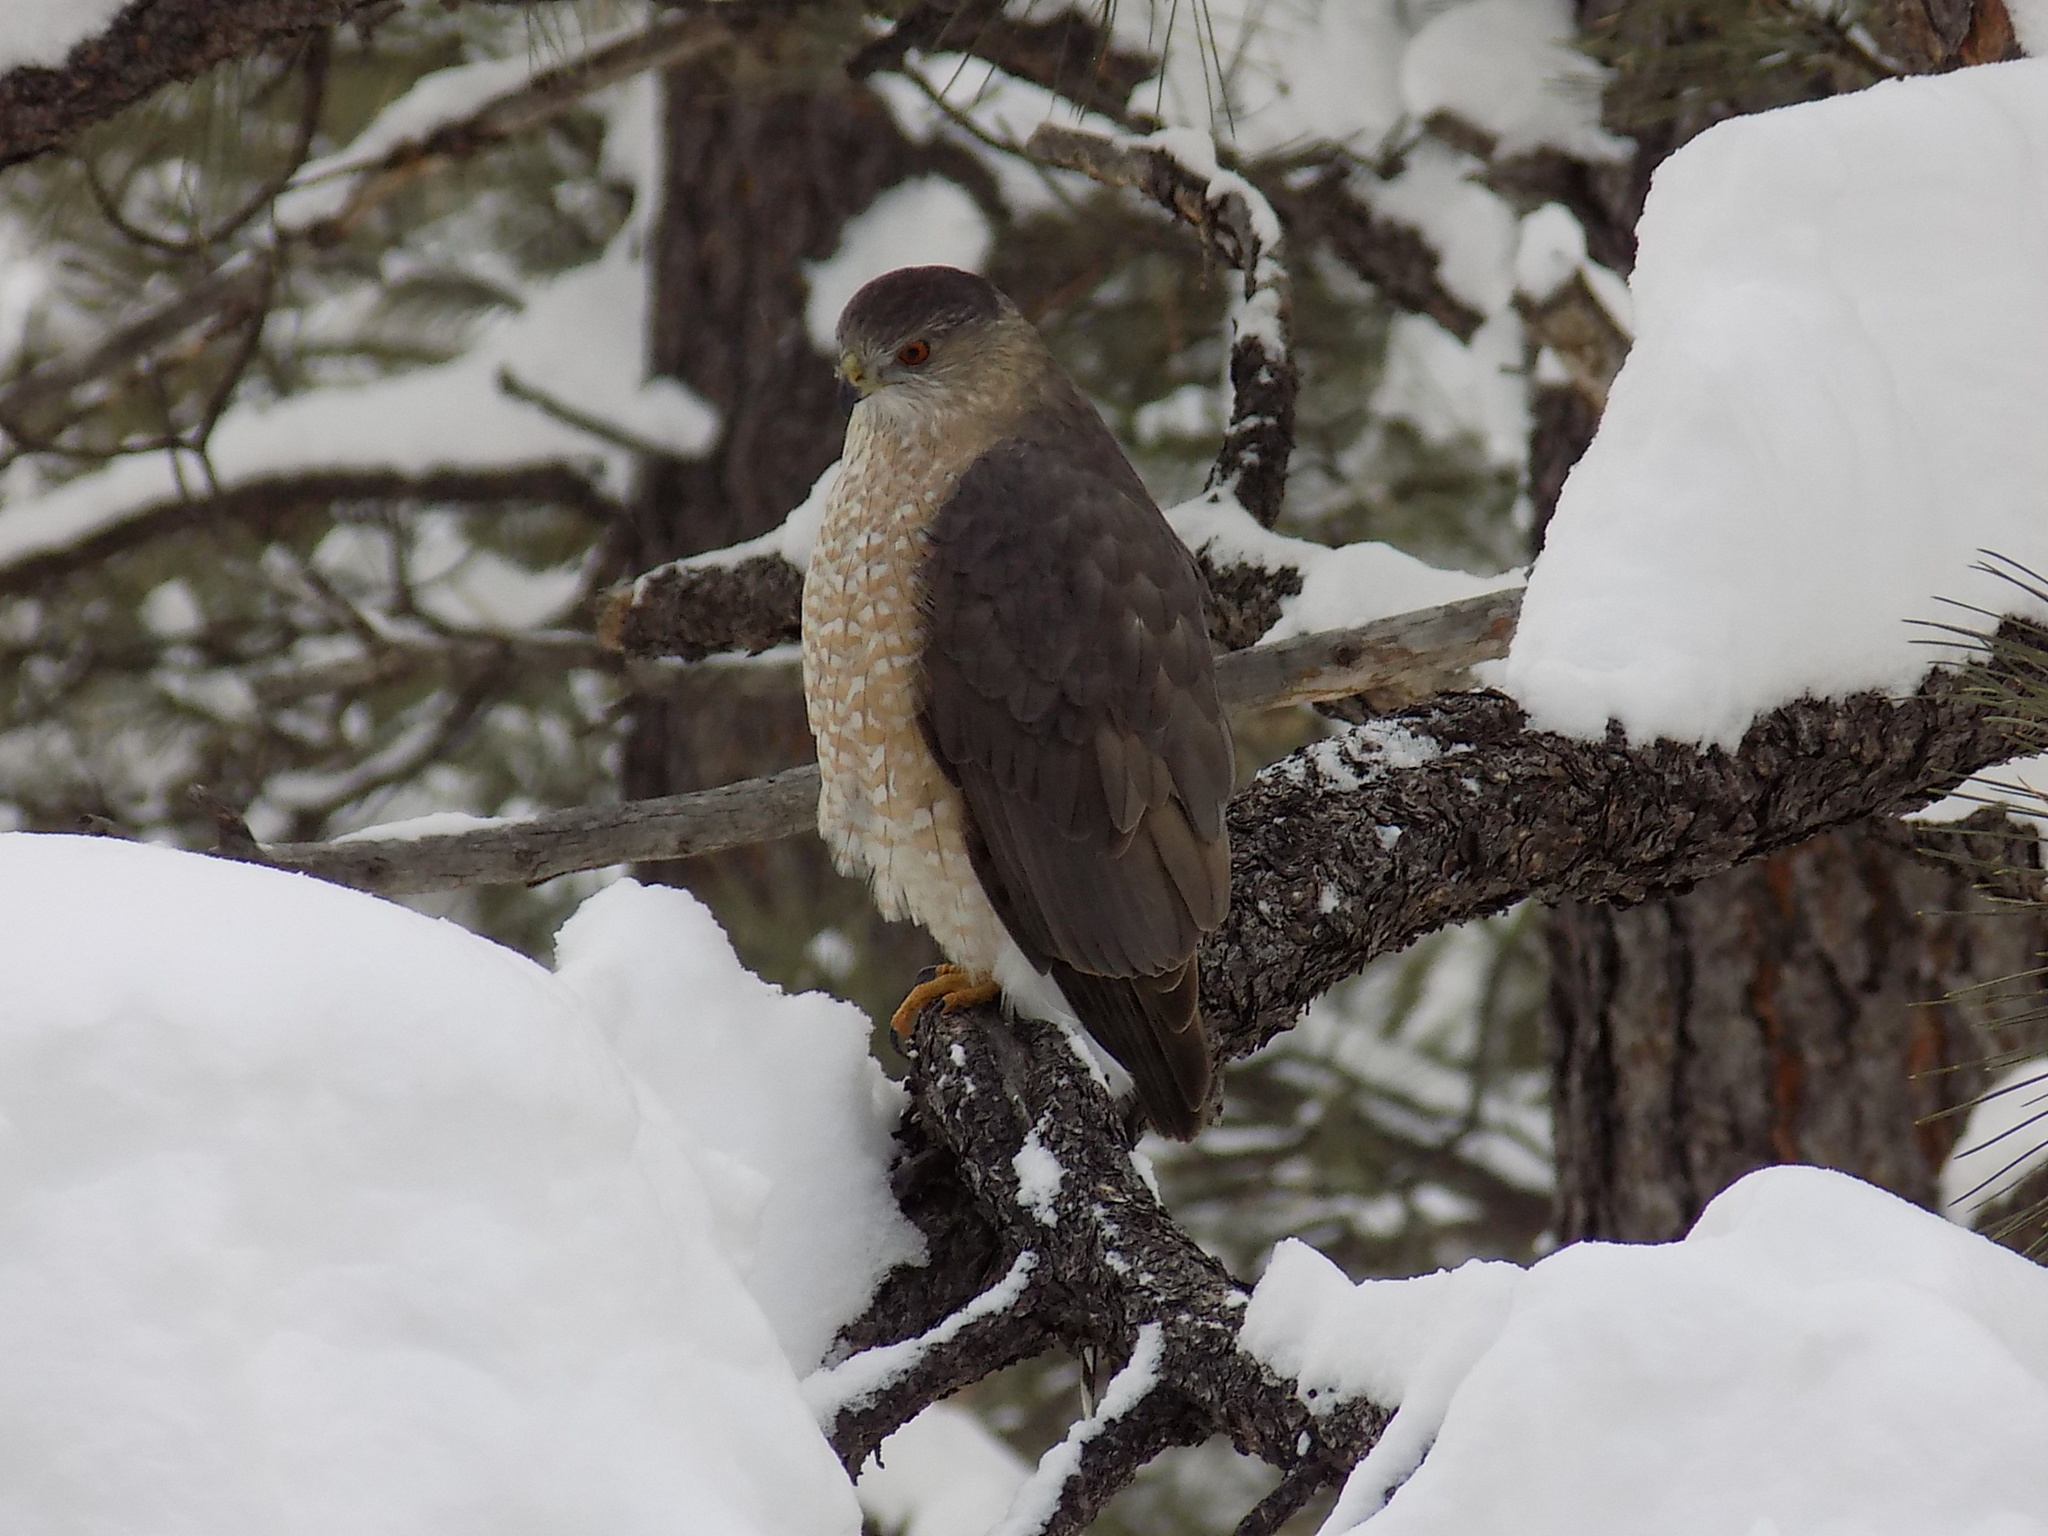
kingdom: Animalia
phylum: Chordata
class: Aves
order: Accipitriformes
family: Accipitridae
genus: Accipiter
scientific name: Accipiter cooperii
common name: Cooper's hawk
